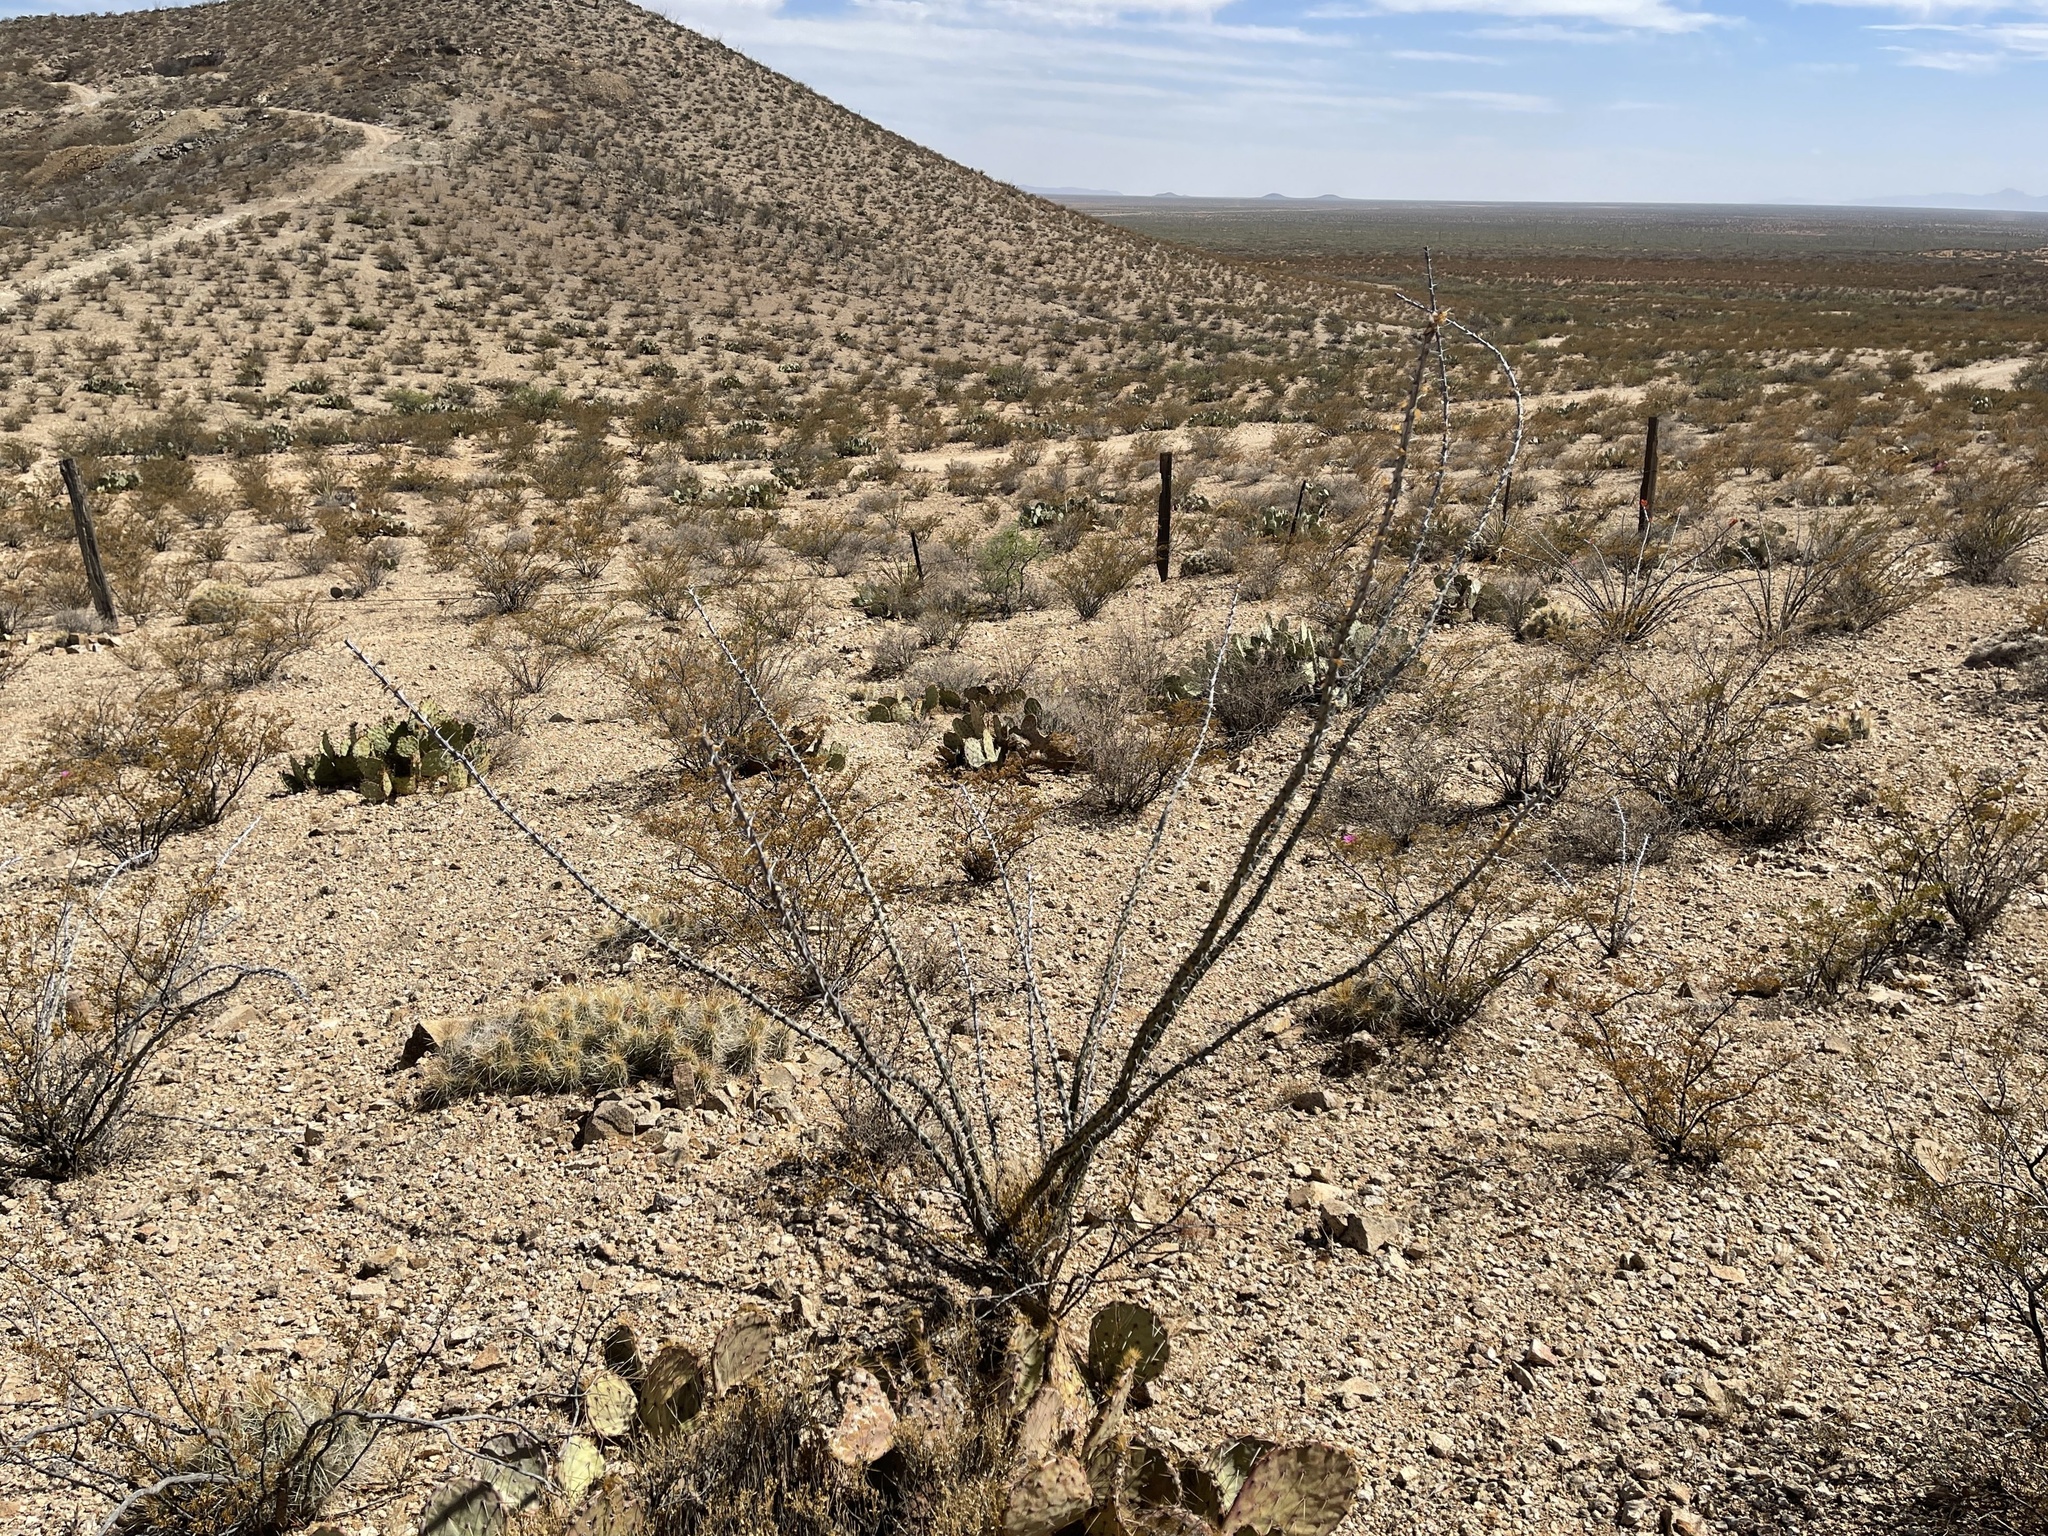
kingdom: Plantae
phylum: Tracheophyta
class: Magnoliopsida
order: Ericales
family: Fouquieriaceae
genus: Fouquieria
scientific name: Fouquieria splendens
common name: Vine-cactus
